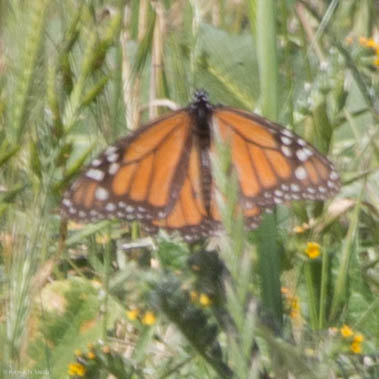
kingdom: Animalia
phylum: Arthropoda
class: Insecta
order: Lepidoptera
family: Nymphalidae
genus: Danaus
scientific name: Danaus plexippus
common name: Monarch
